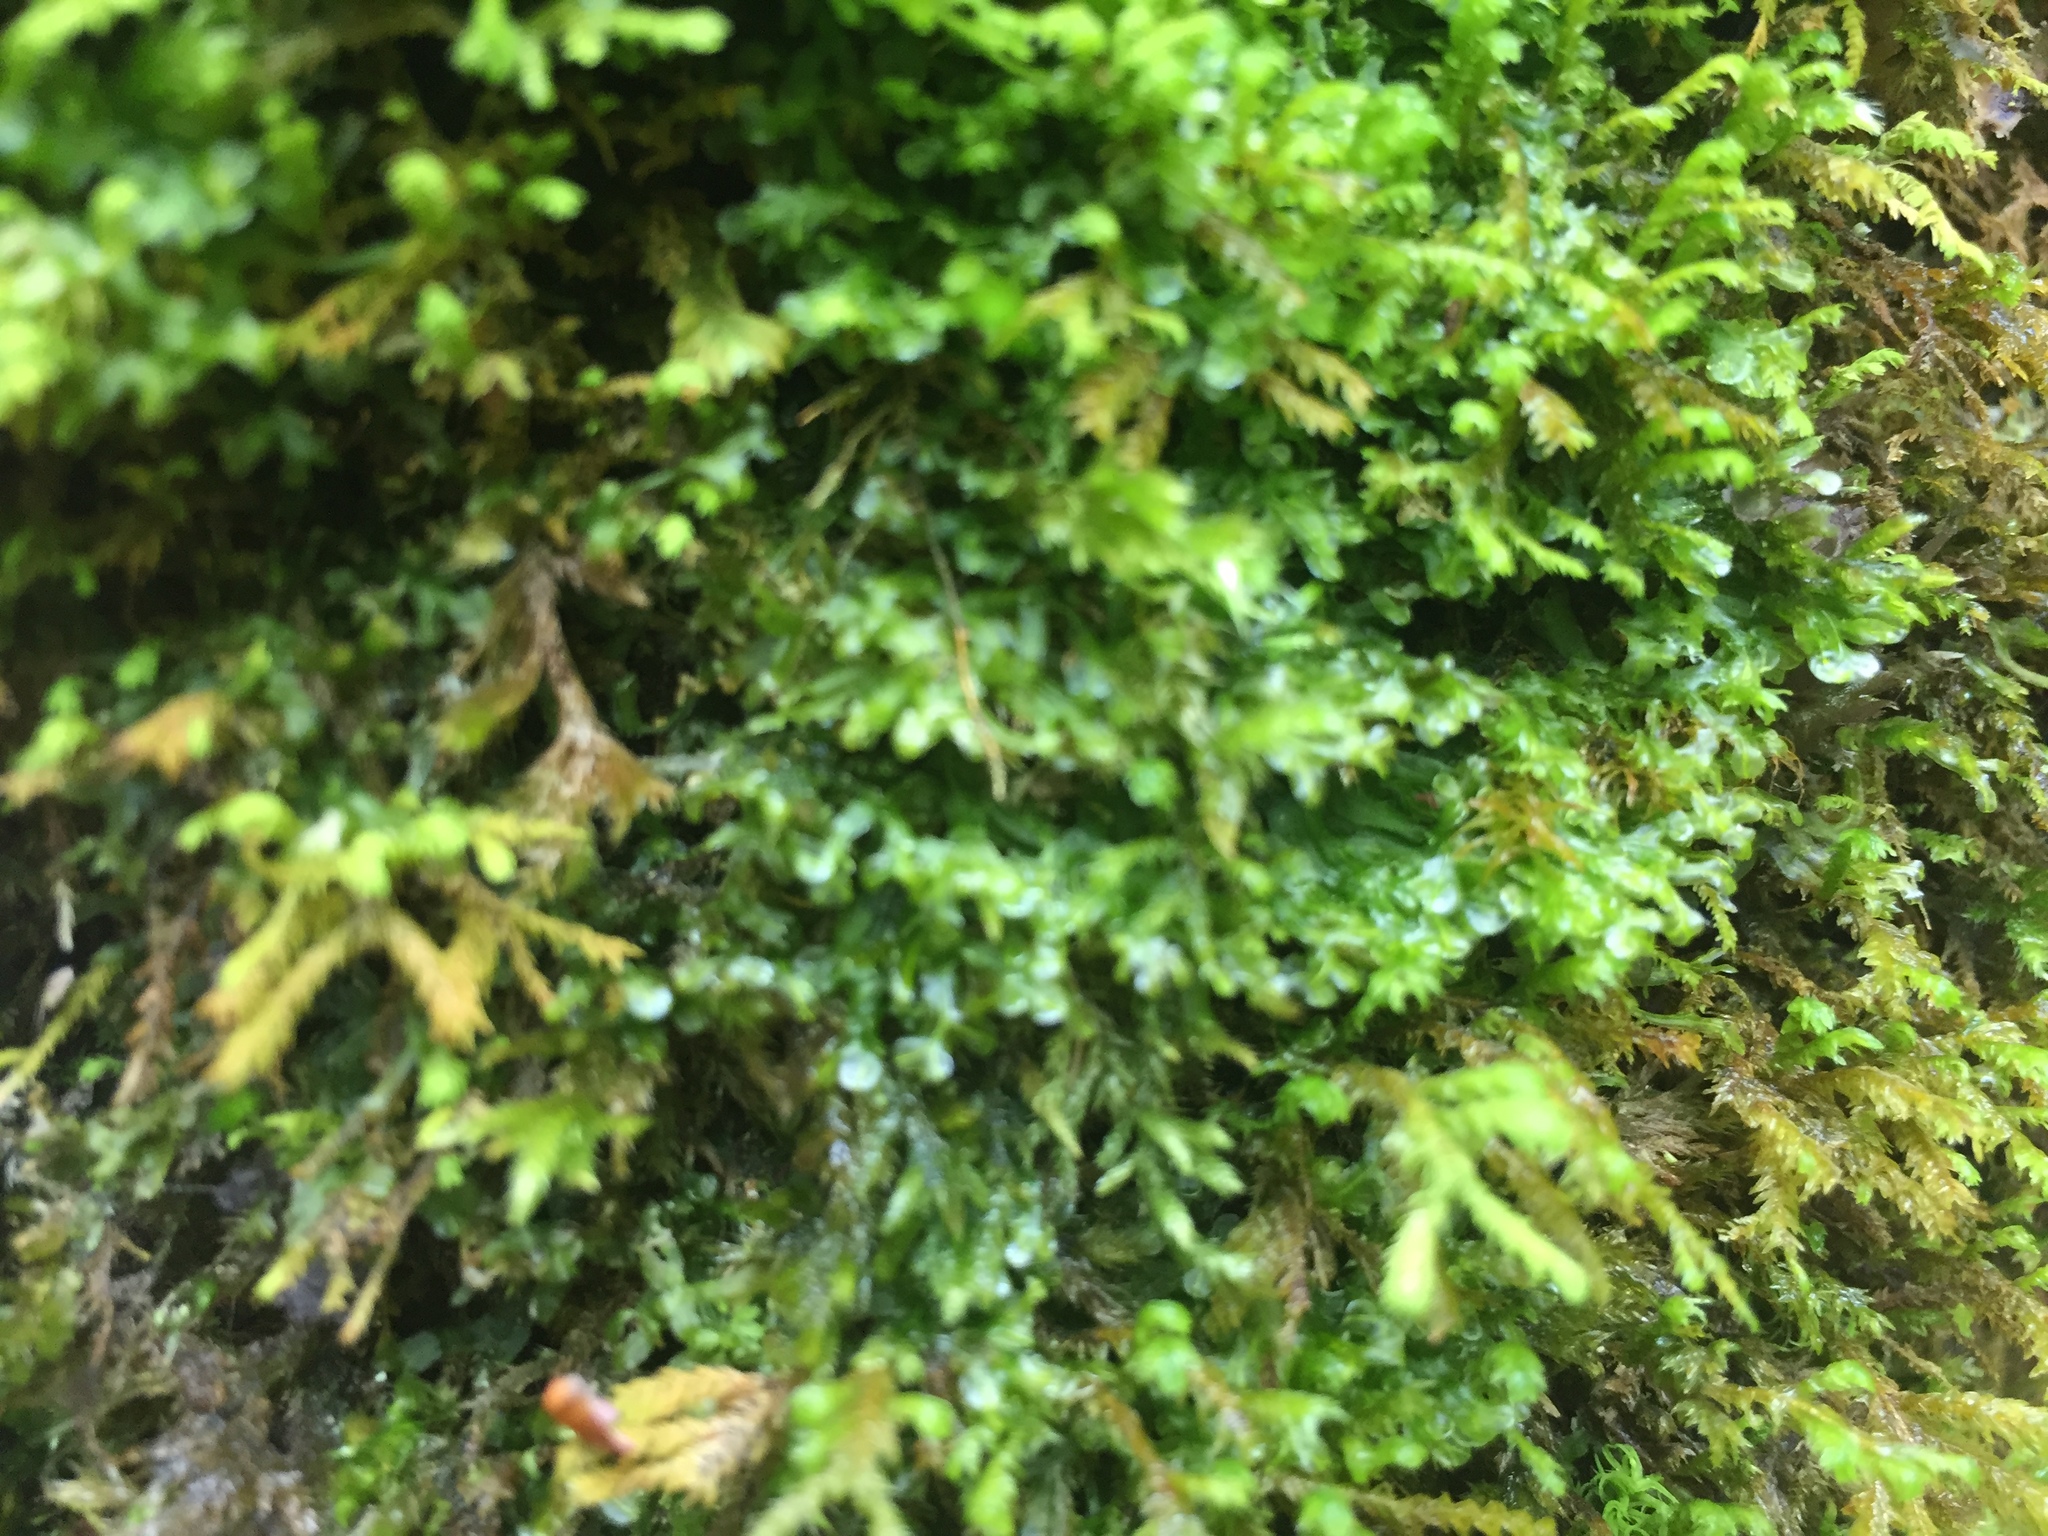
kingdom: Plantae
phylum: Marchantiophyta
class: Jungermanniopsida
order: Porellales
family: Porellaceae
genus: Porella
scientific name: Porella platyphylla
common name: Wall scalewort
